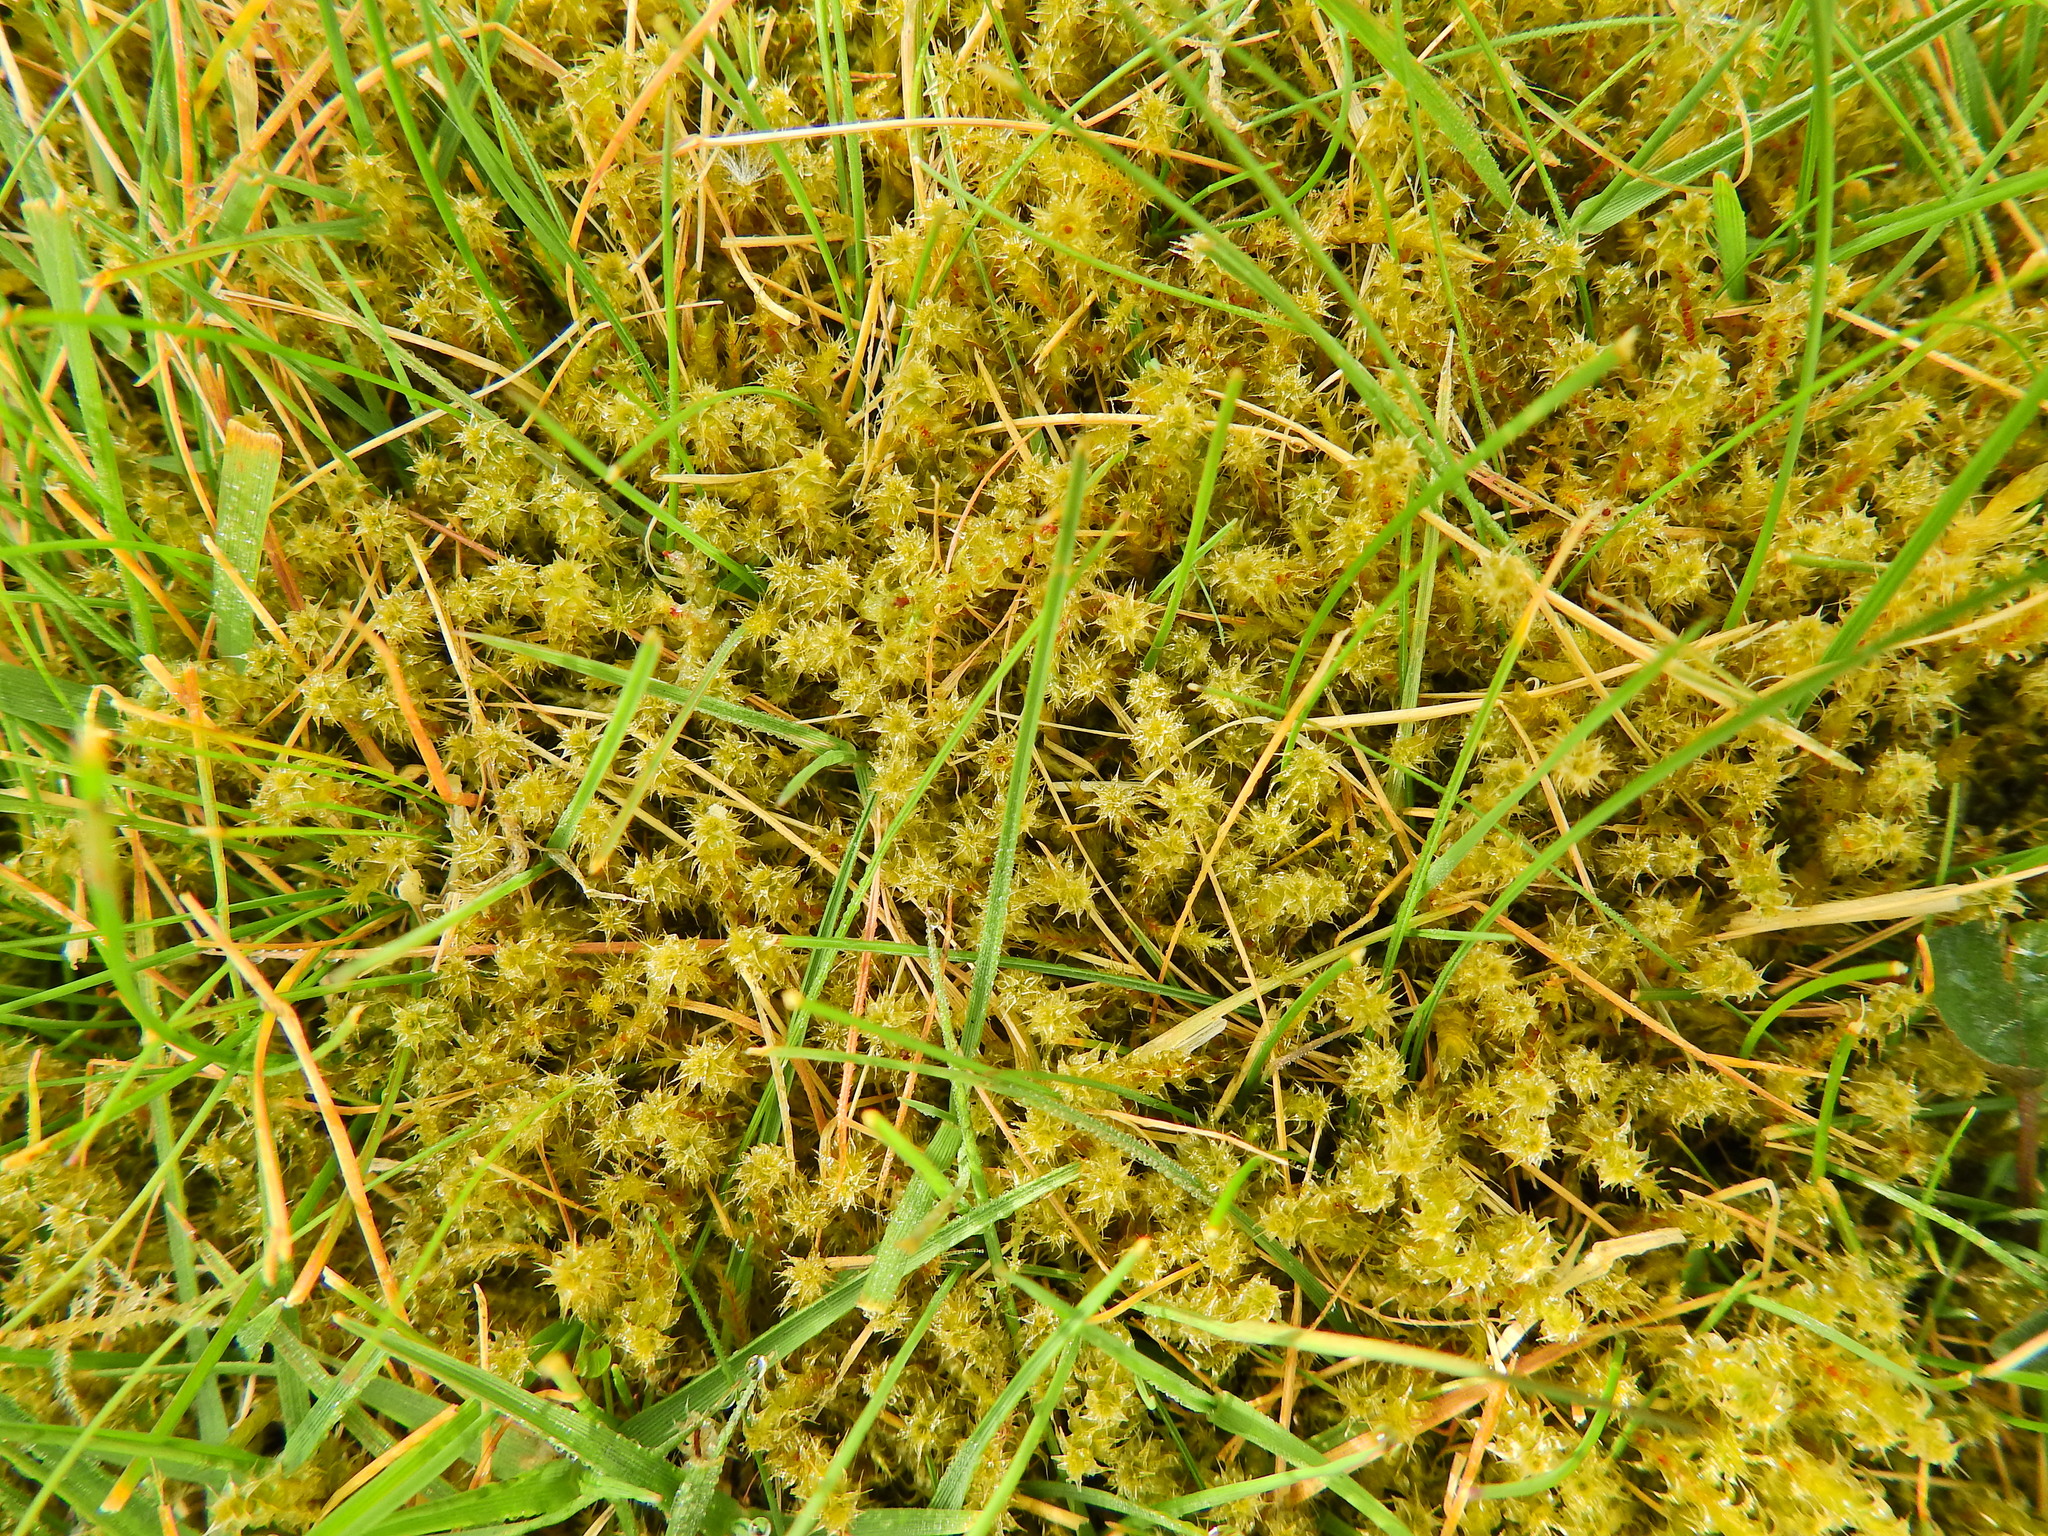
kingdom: Plantae
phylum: Bryophyta
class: Bryopsida
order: Hypnales
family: Hylocomiaceae
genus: Rhytidiadelphus
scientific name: Rhytidiadelphus squarrosus
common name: Springy turf-moss
